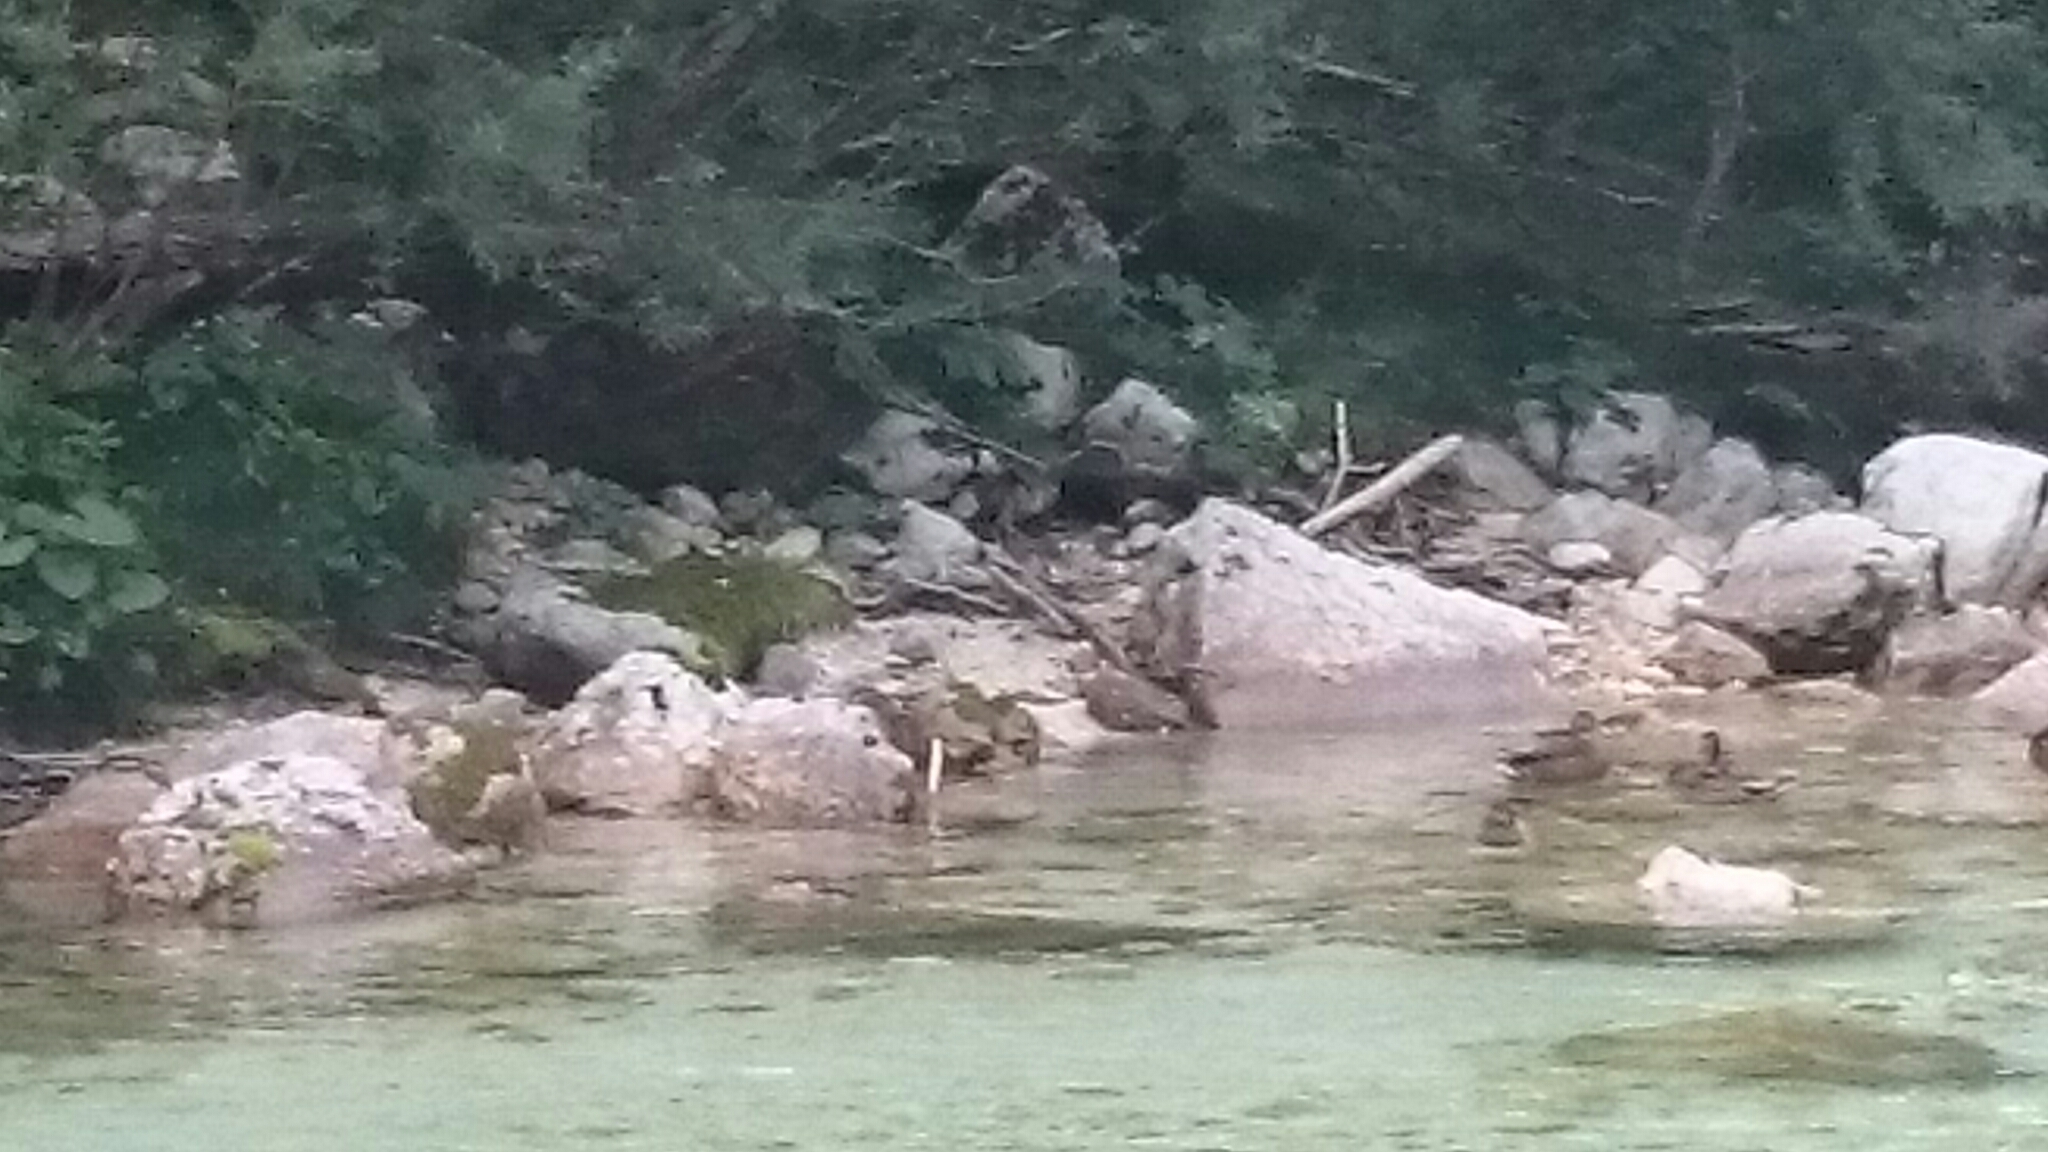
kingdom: Animalia
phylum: Chordata
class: Aves
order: Anseriformes
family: Anatidae
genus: Anas
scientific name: Anas platyrhynchos
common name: Mallard
